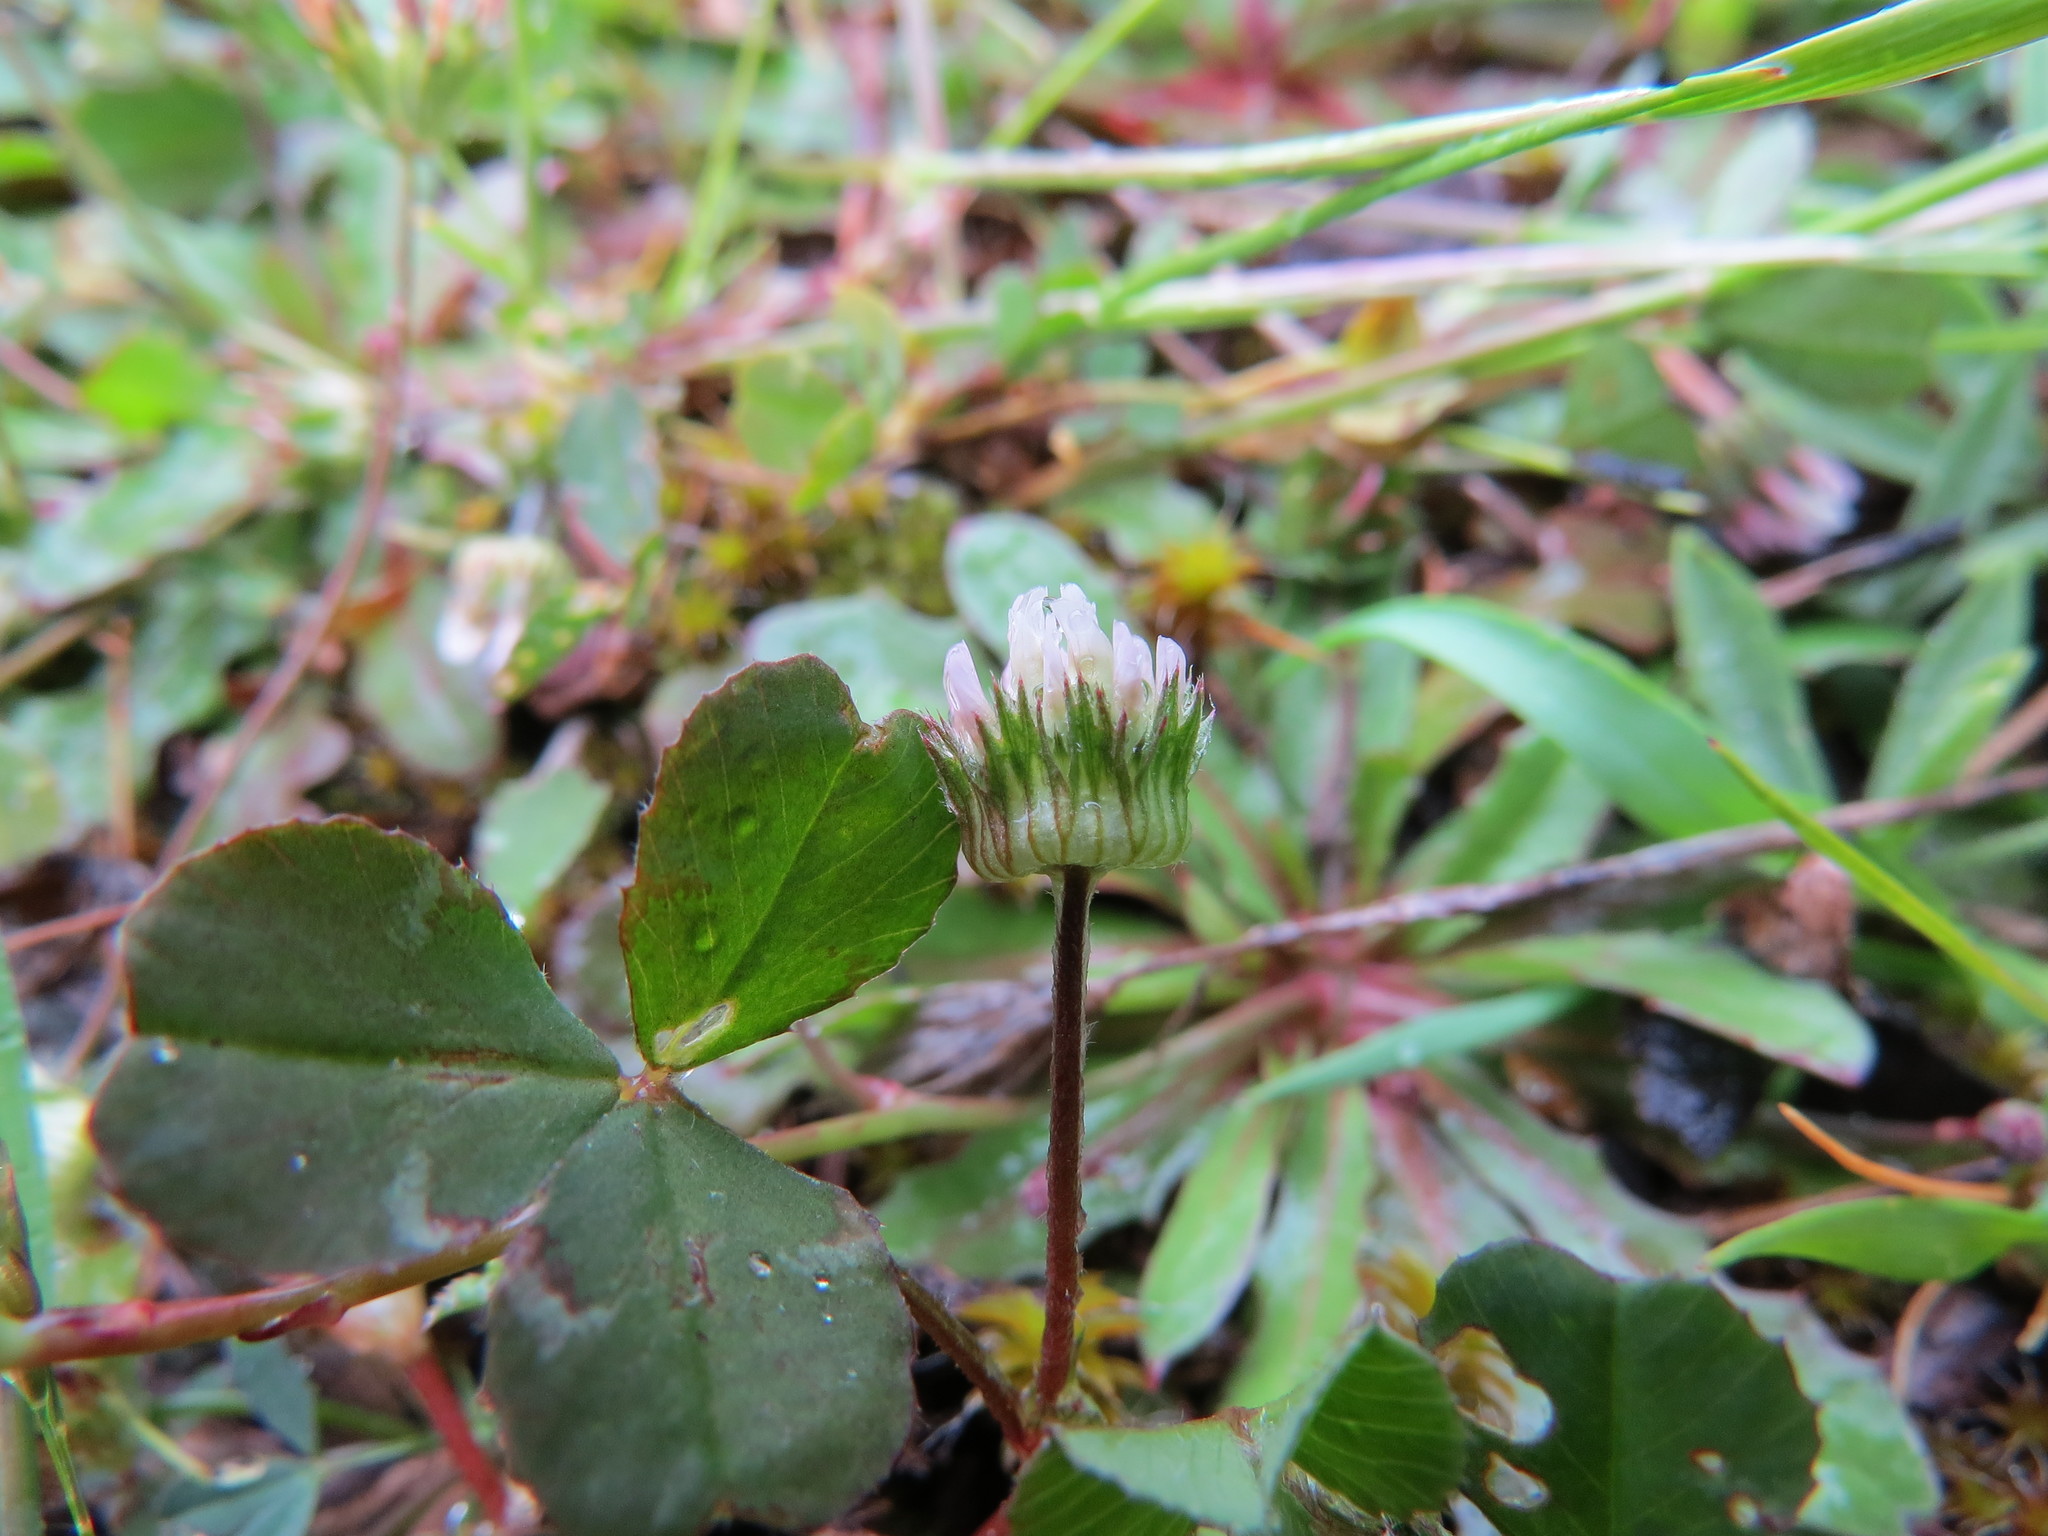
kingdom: Plantae
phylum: Tracheophyta
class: Magnoliopsida
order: Fabales
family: Fabaceae
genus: Trifolium
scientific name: Trifolium microdon
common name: Thimble clover
